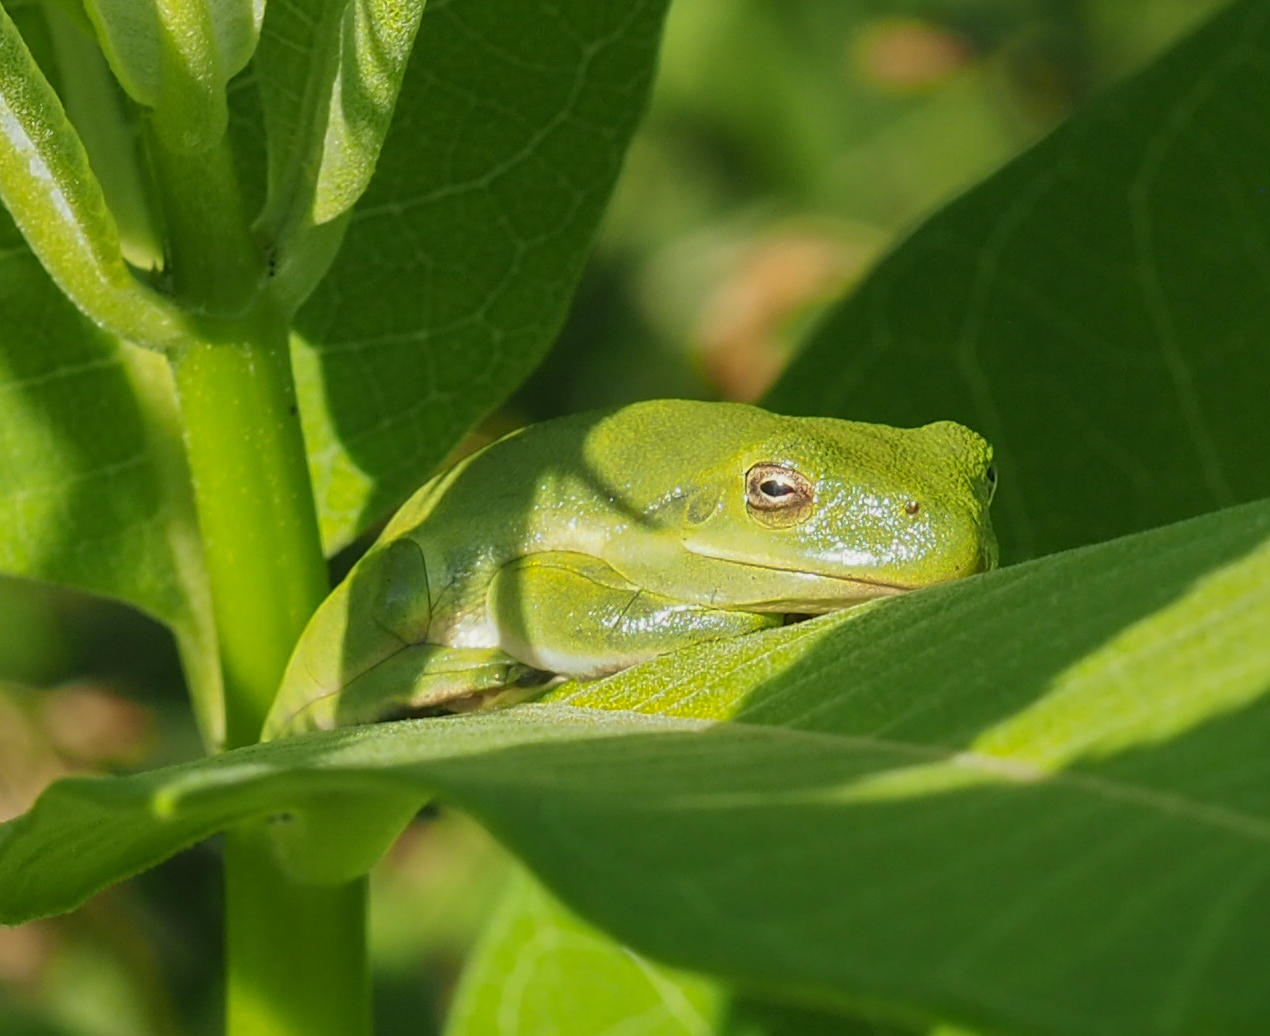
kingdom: Animalia
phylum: Chordata
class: Amphibia
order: Anura
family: Hylidae
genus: Dryophytes
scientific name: Dryophytes cinereus
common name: Green treefrog
